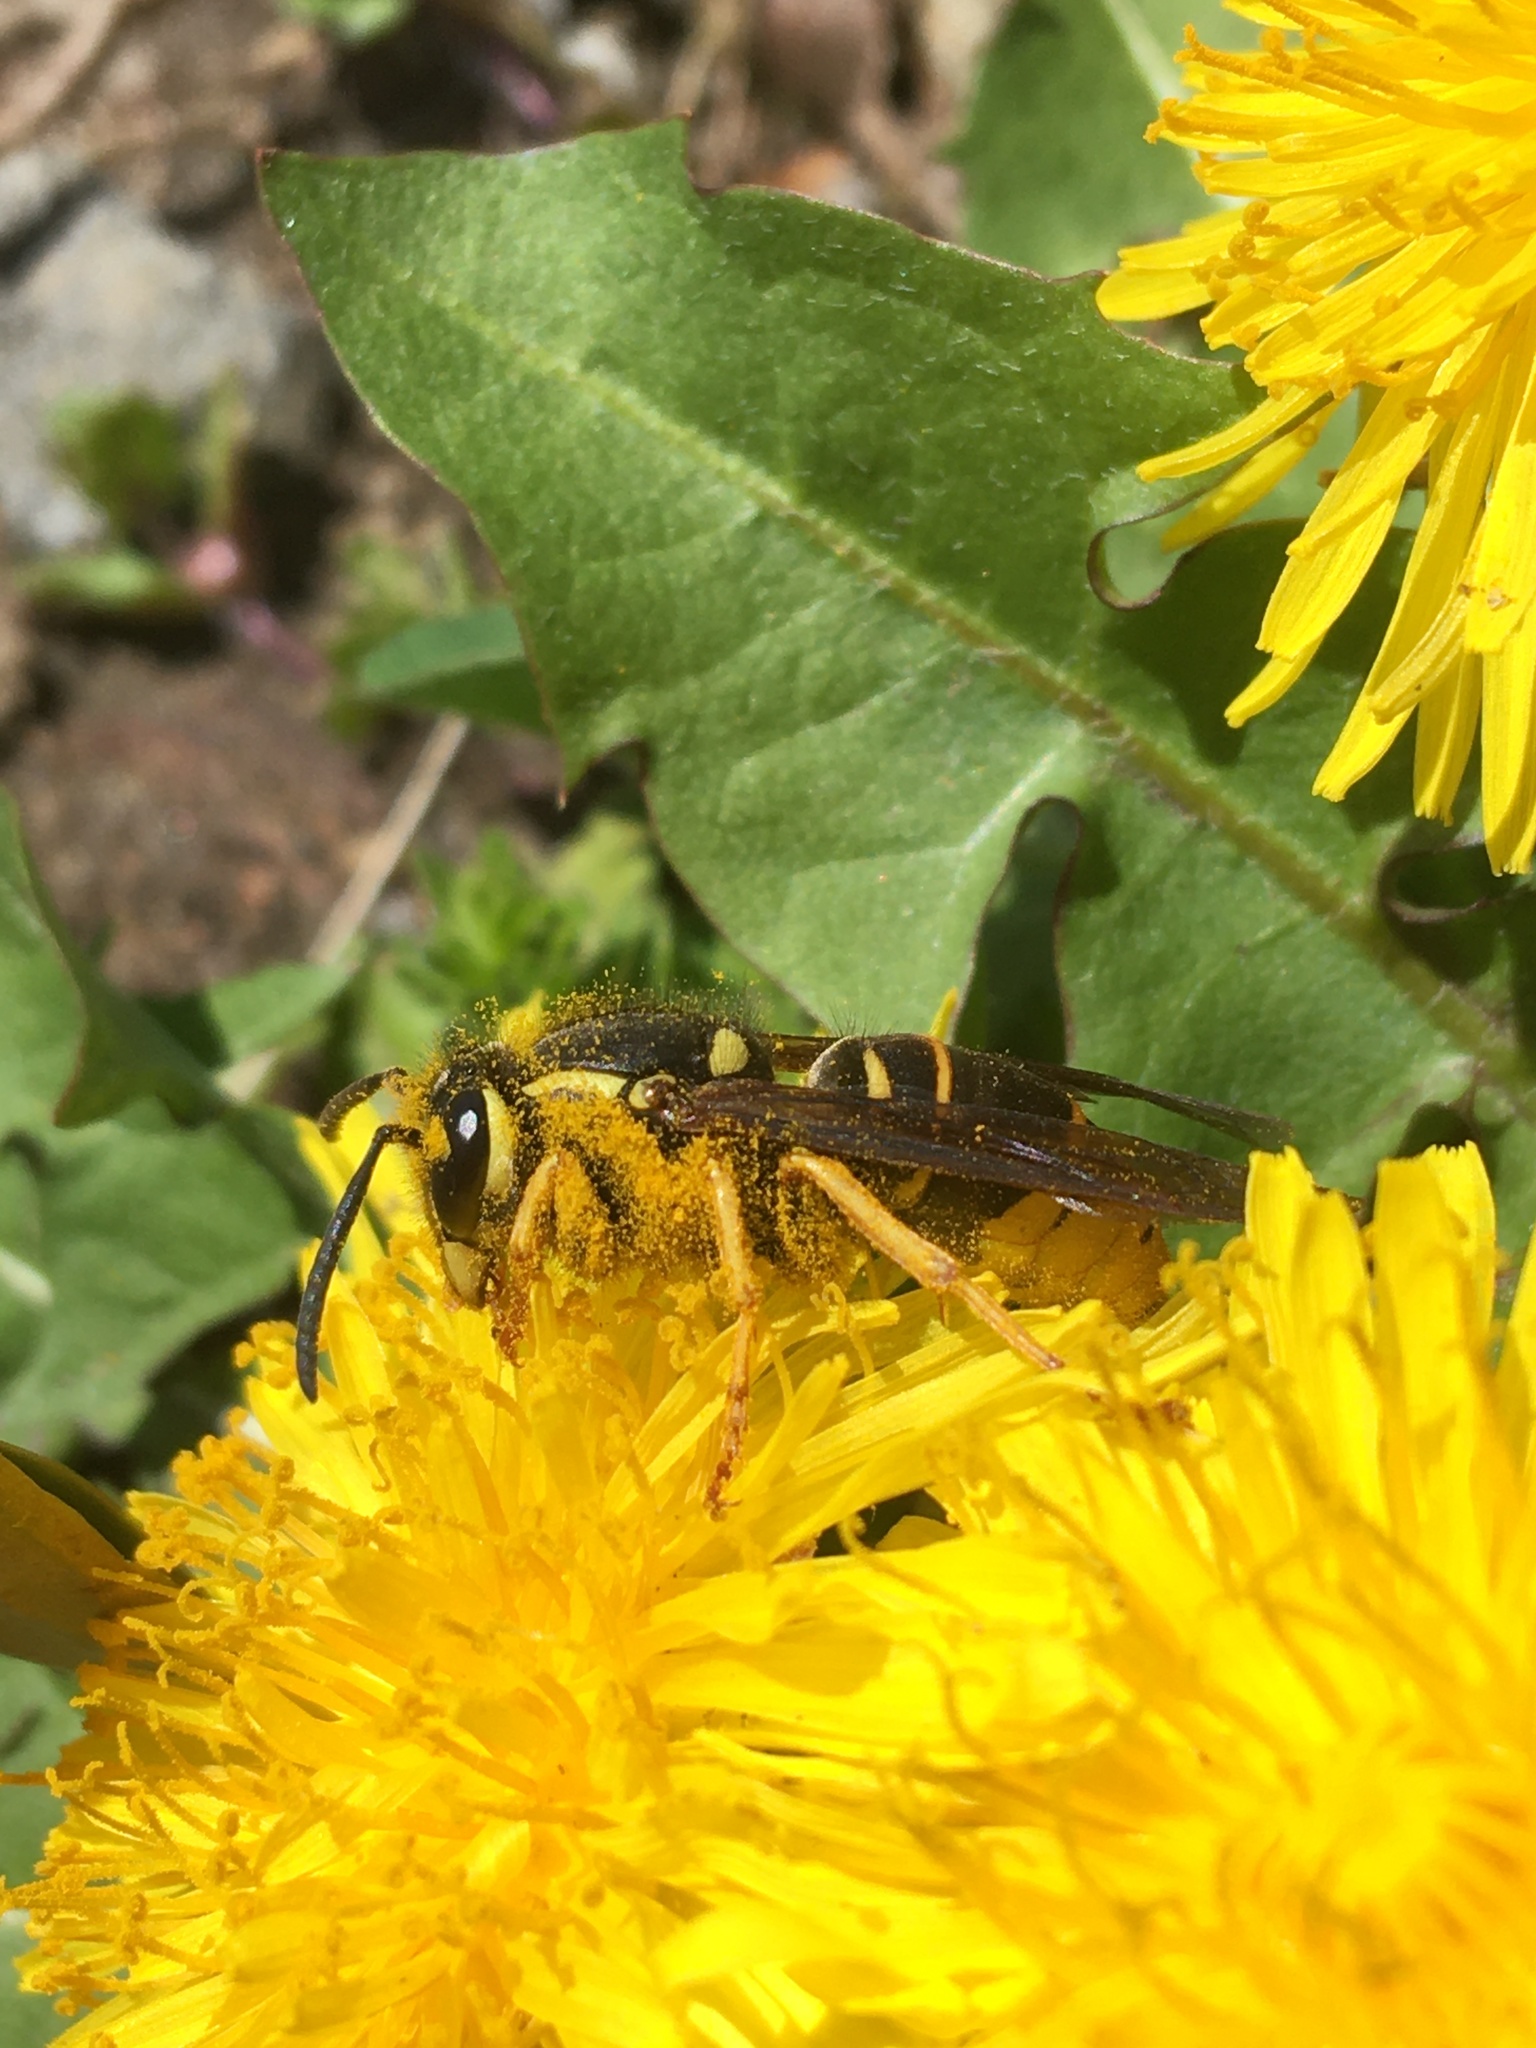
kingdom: Animalia
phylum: Arthropoda
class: Insecta
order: Hymenoptera
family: Vespidae
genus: Vespula
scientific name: Vespula vidua
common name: Widow yellowjacket
